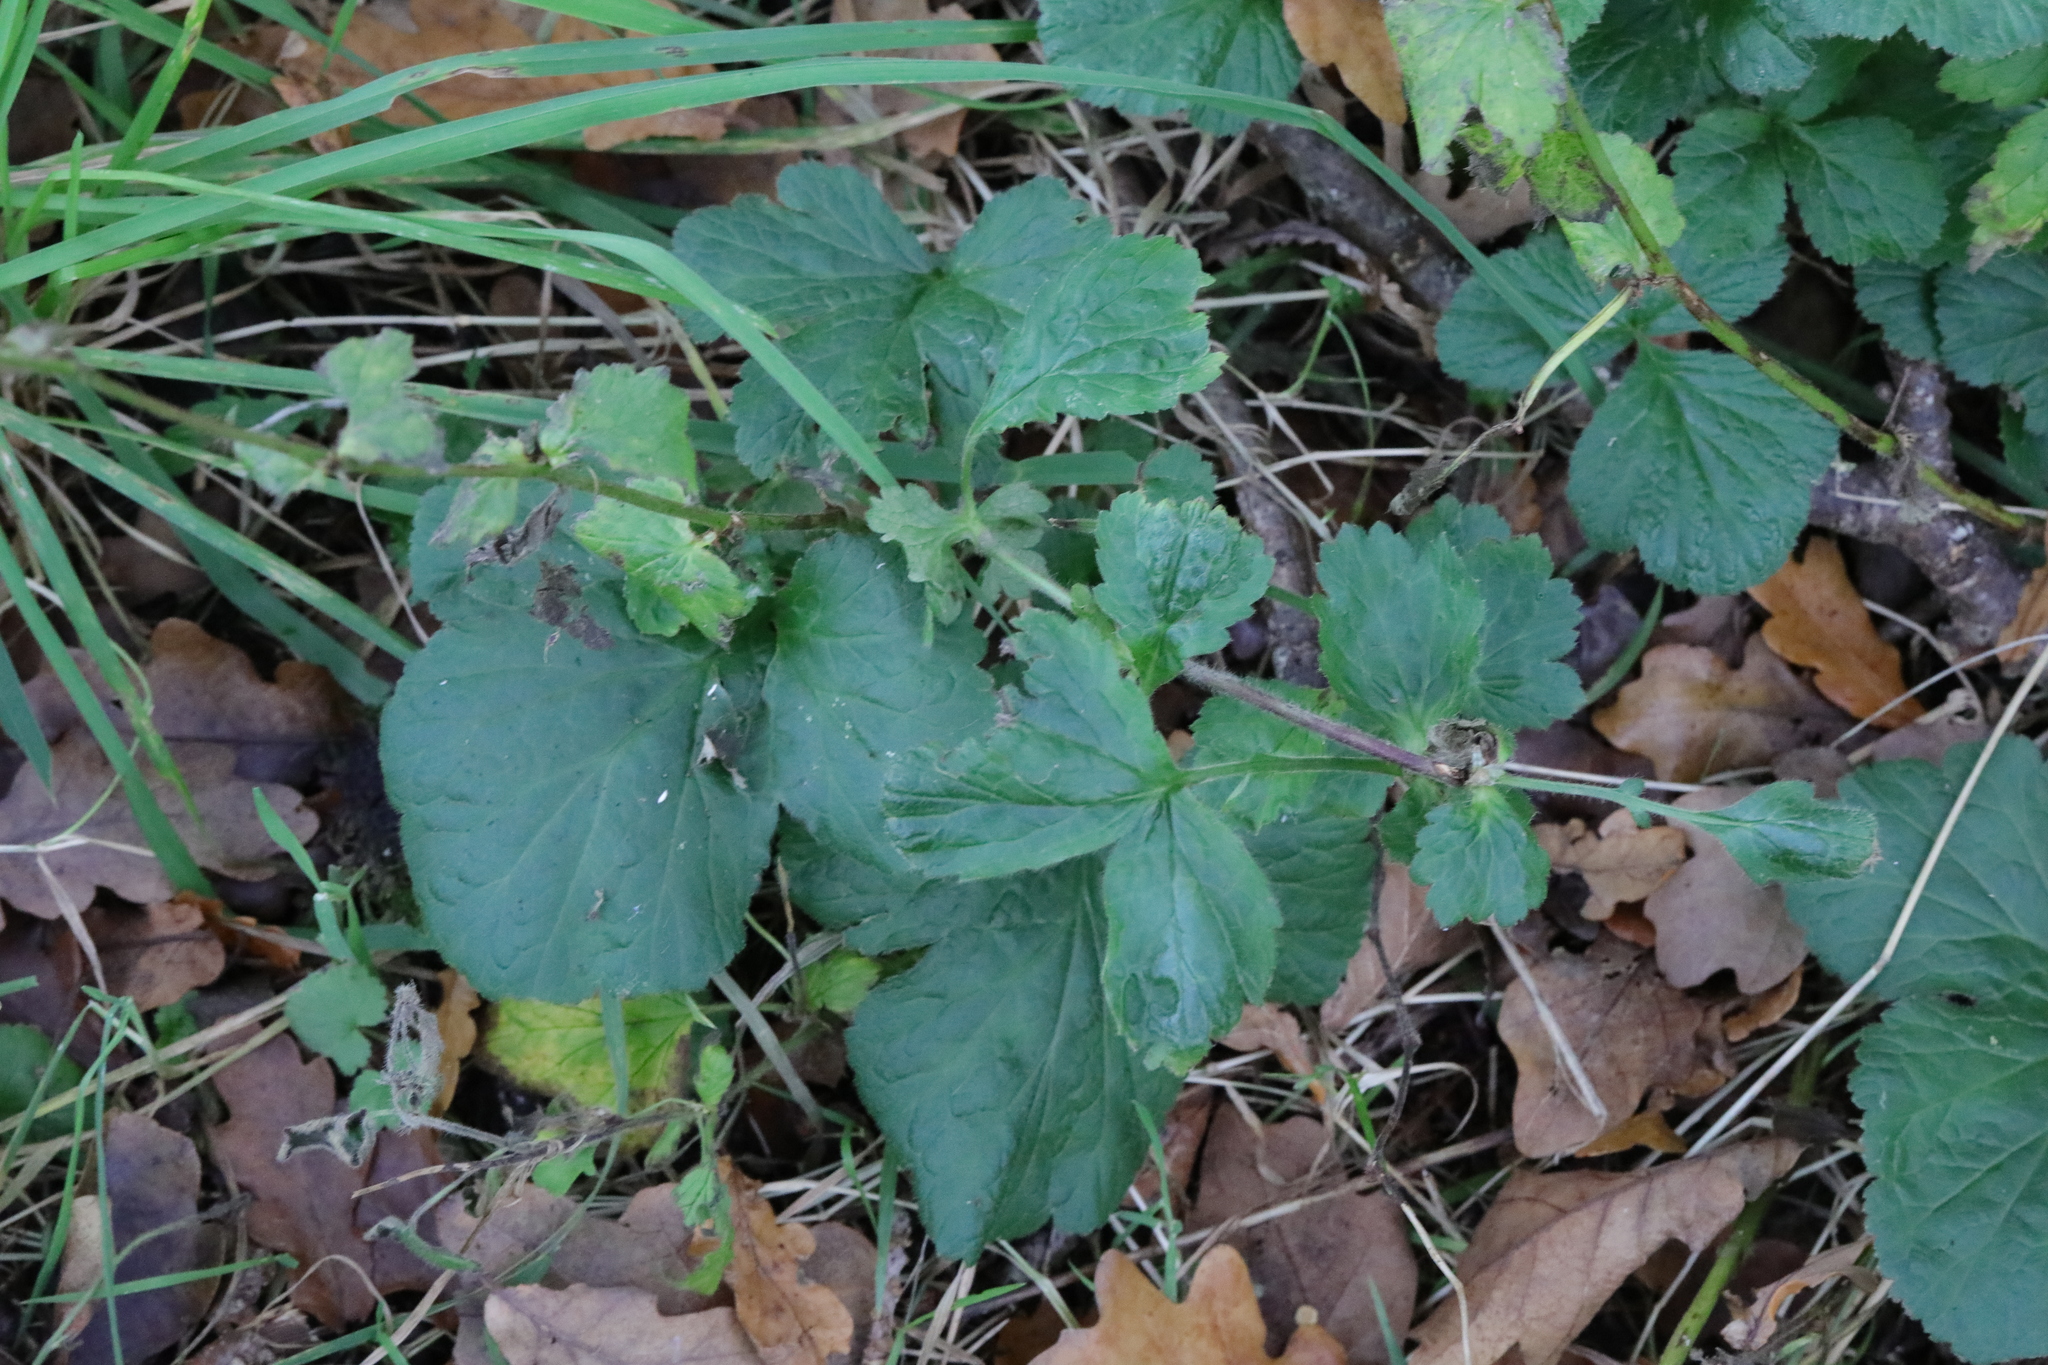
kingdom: Plantae
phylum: Tracheophyta
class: Magnoliopsida
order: Rosales
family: Rosaceae
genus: Geum
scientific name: Geum urbanum
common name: Wood avens
